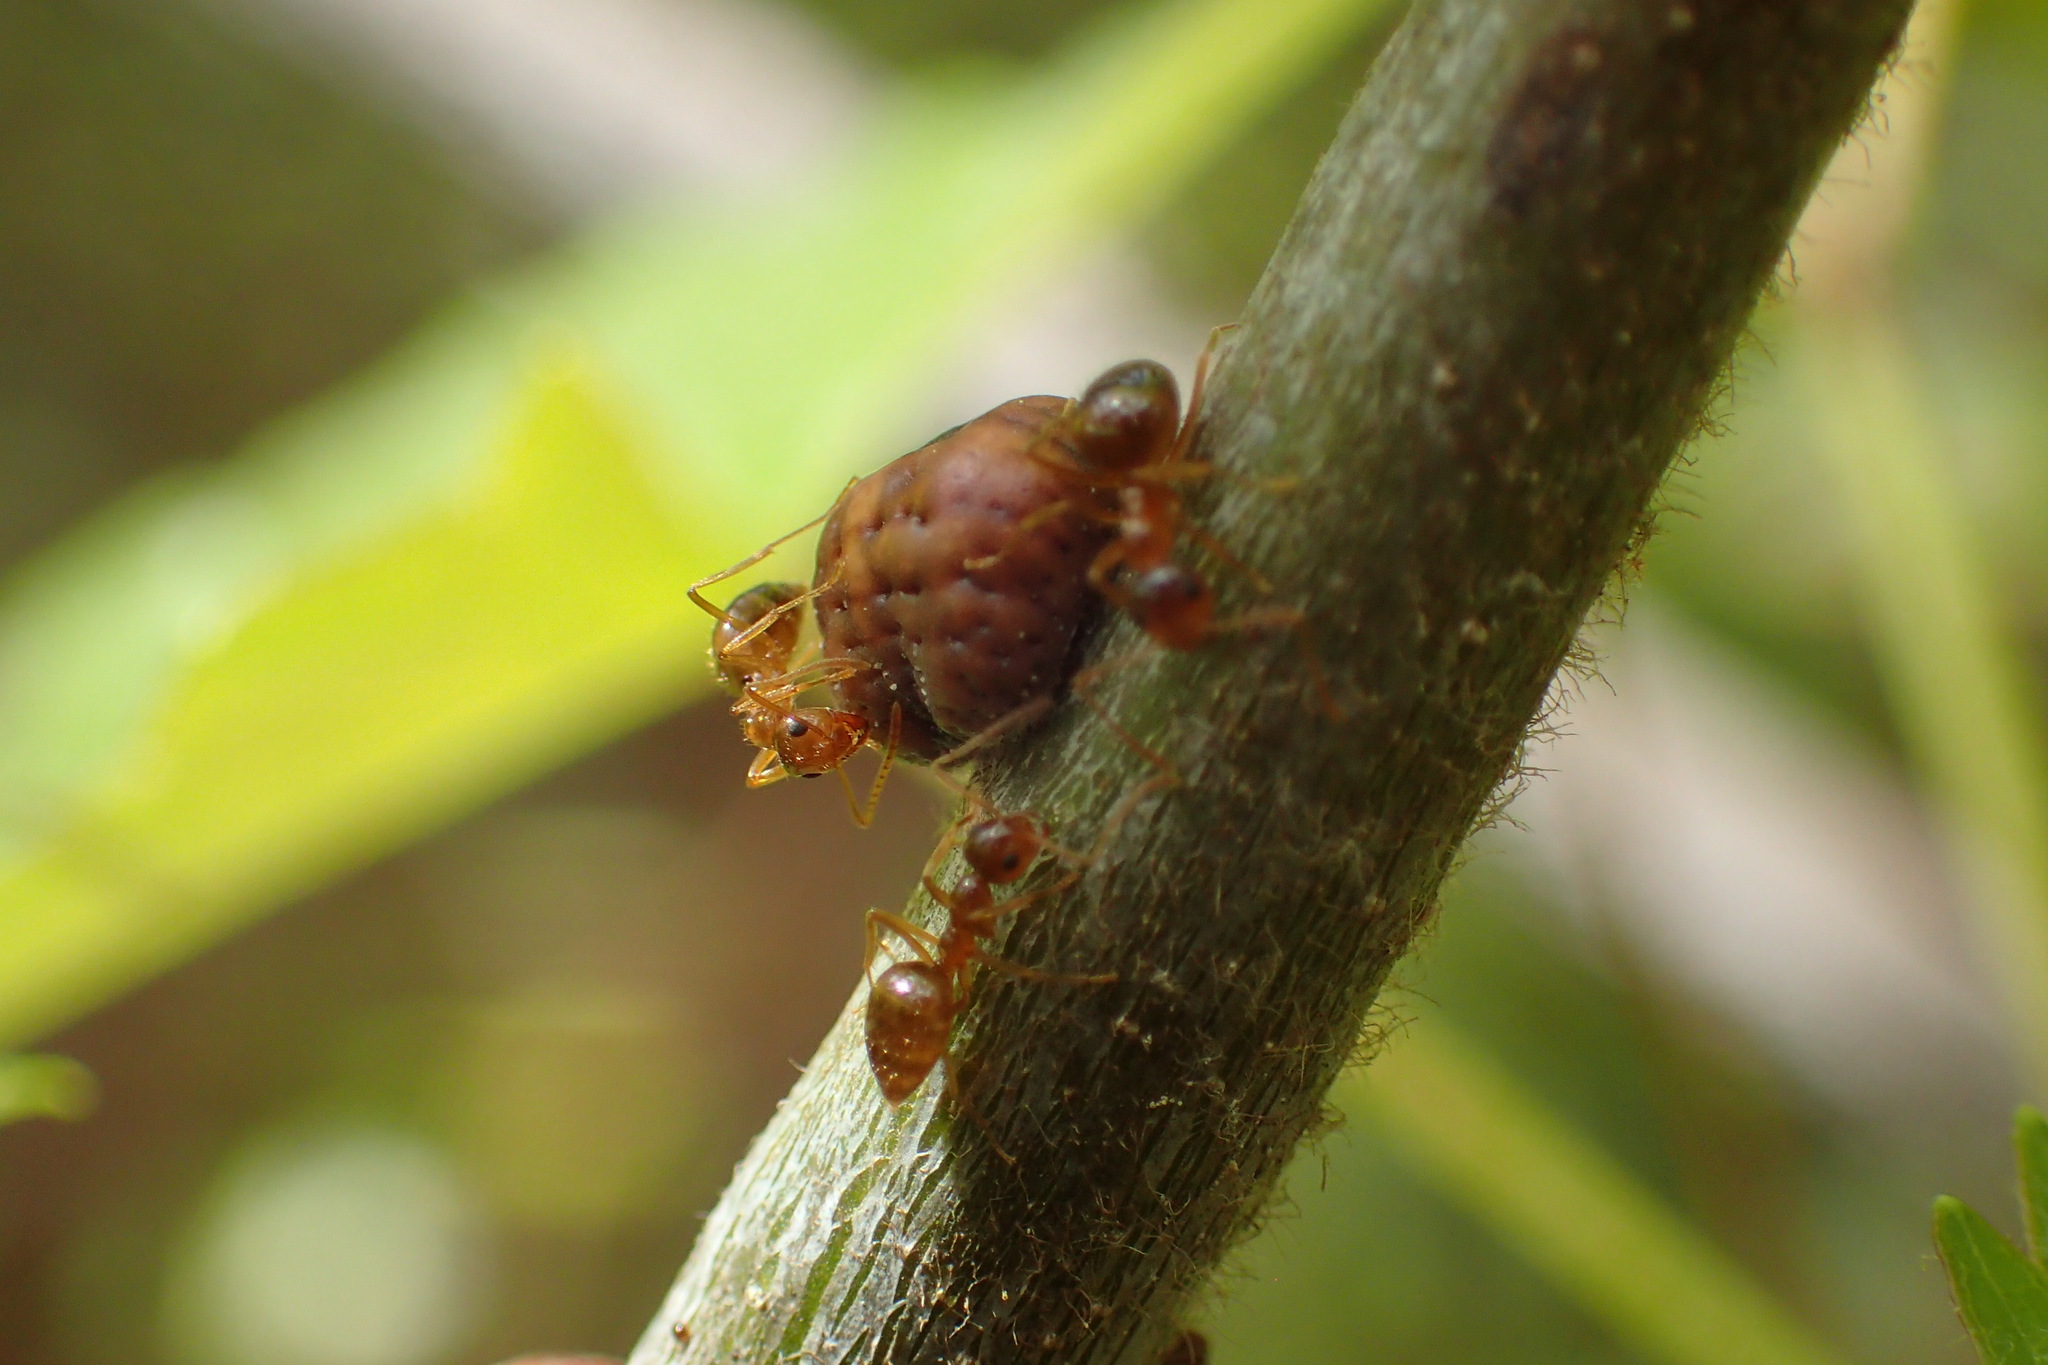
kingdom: Animalia
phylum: Arthropoda
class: Insecta
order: Hymenoptera
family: Formicidae
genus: Prenolepis
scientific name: Prenolepis imparis
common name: Small honey ant
